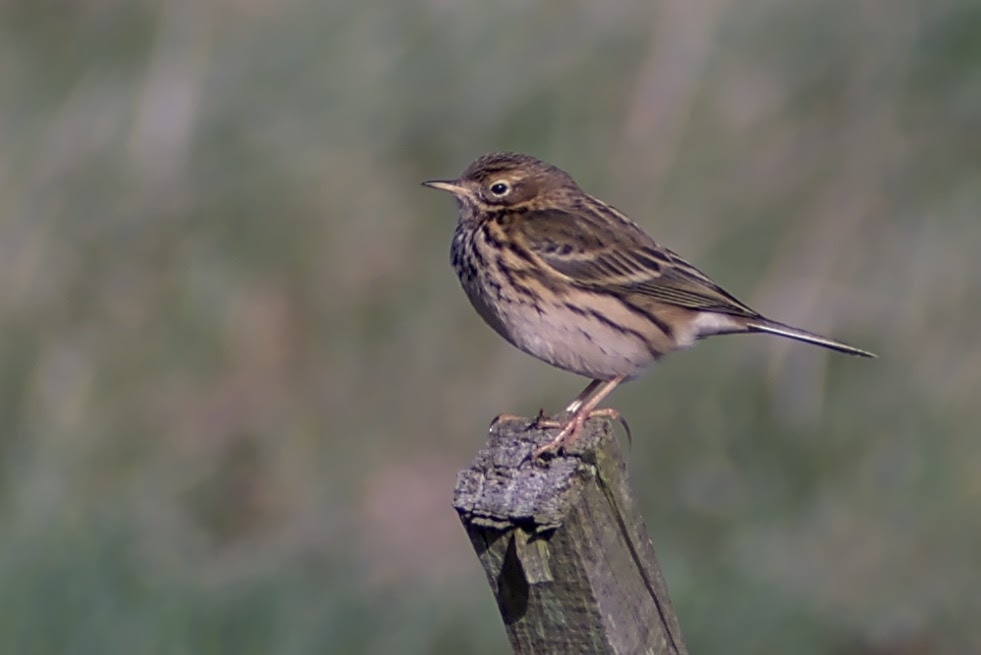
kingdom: Animalia
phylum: Chordata
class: Aves
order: Passeriformes
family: Motacillidae
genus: Anthus
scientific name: Anthus pratensis
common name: Meadow pipit
